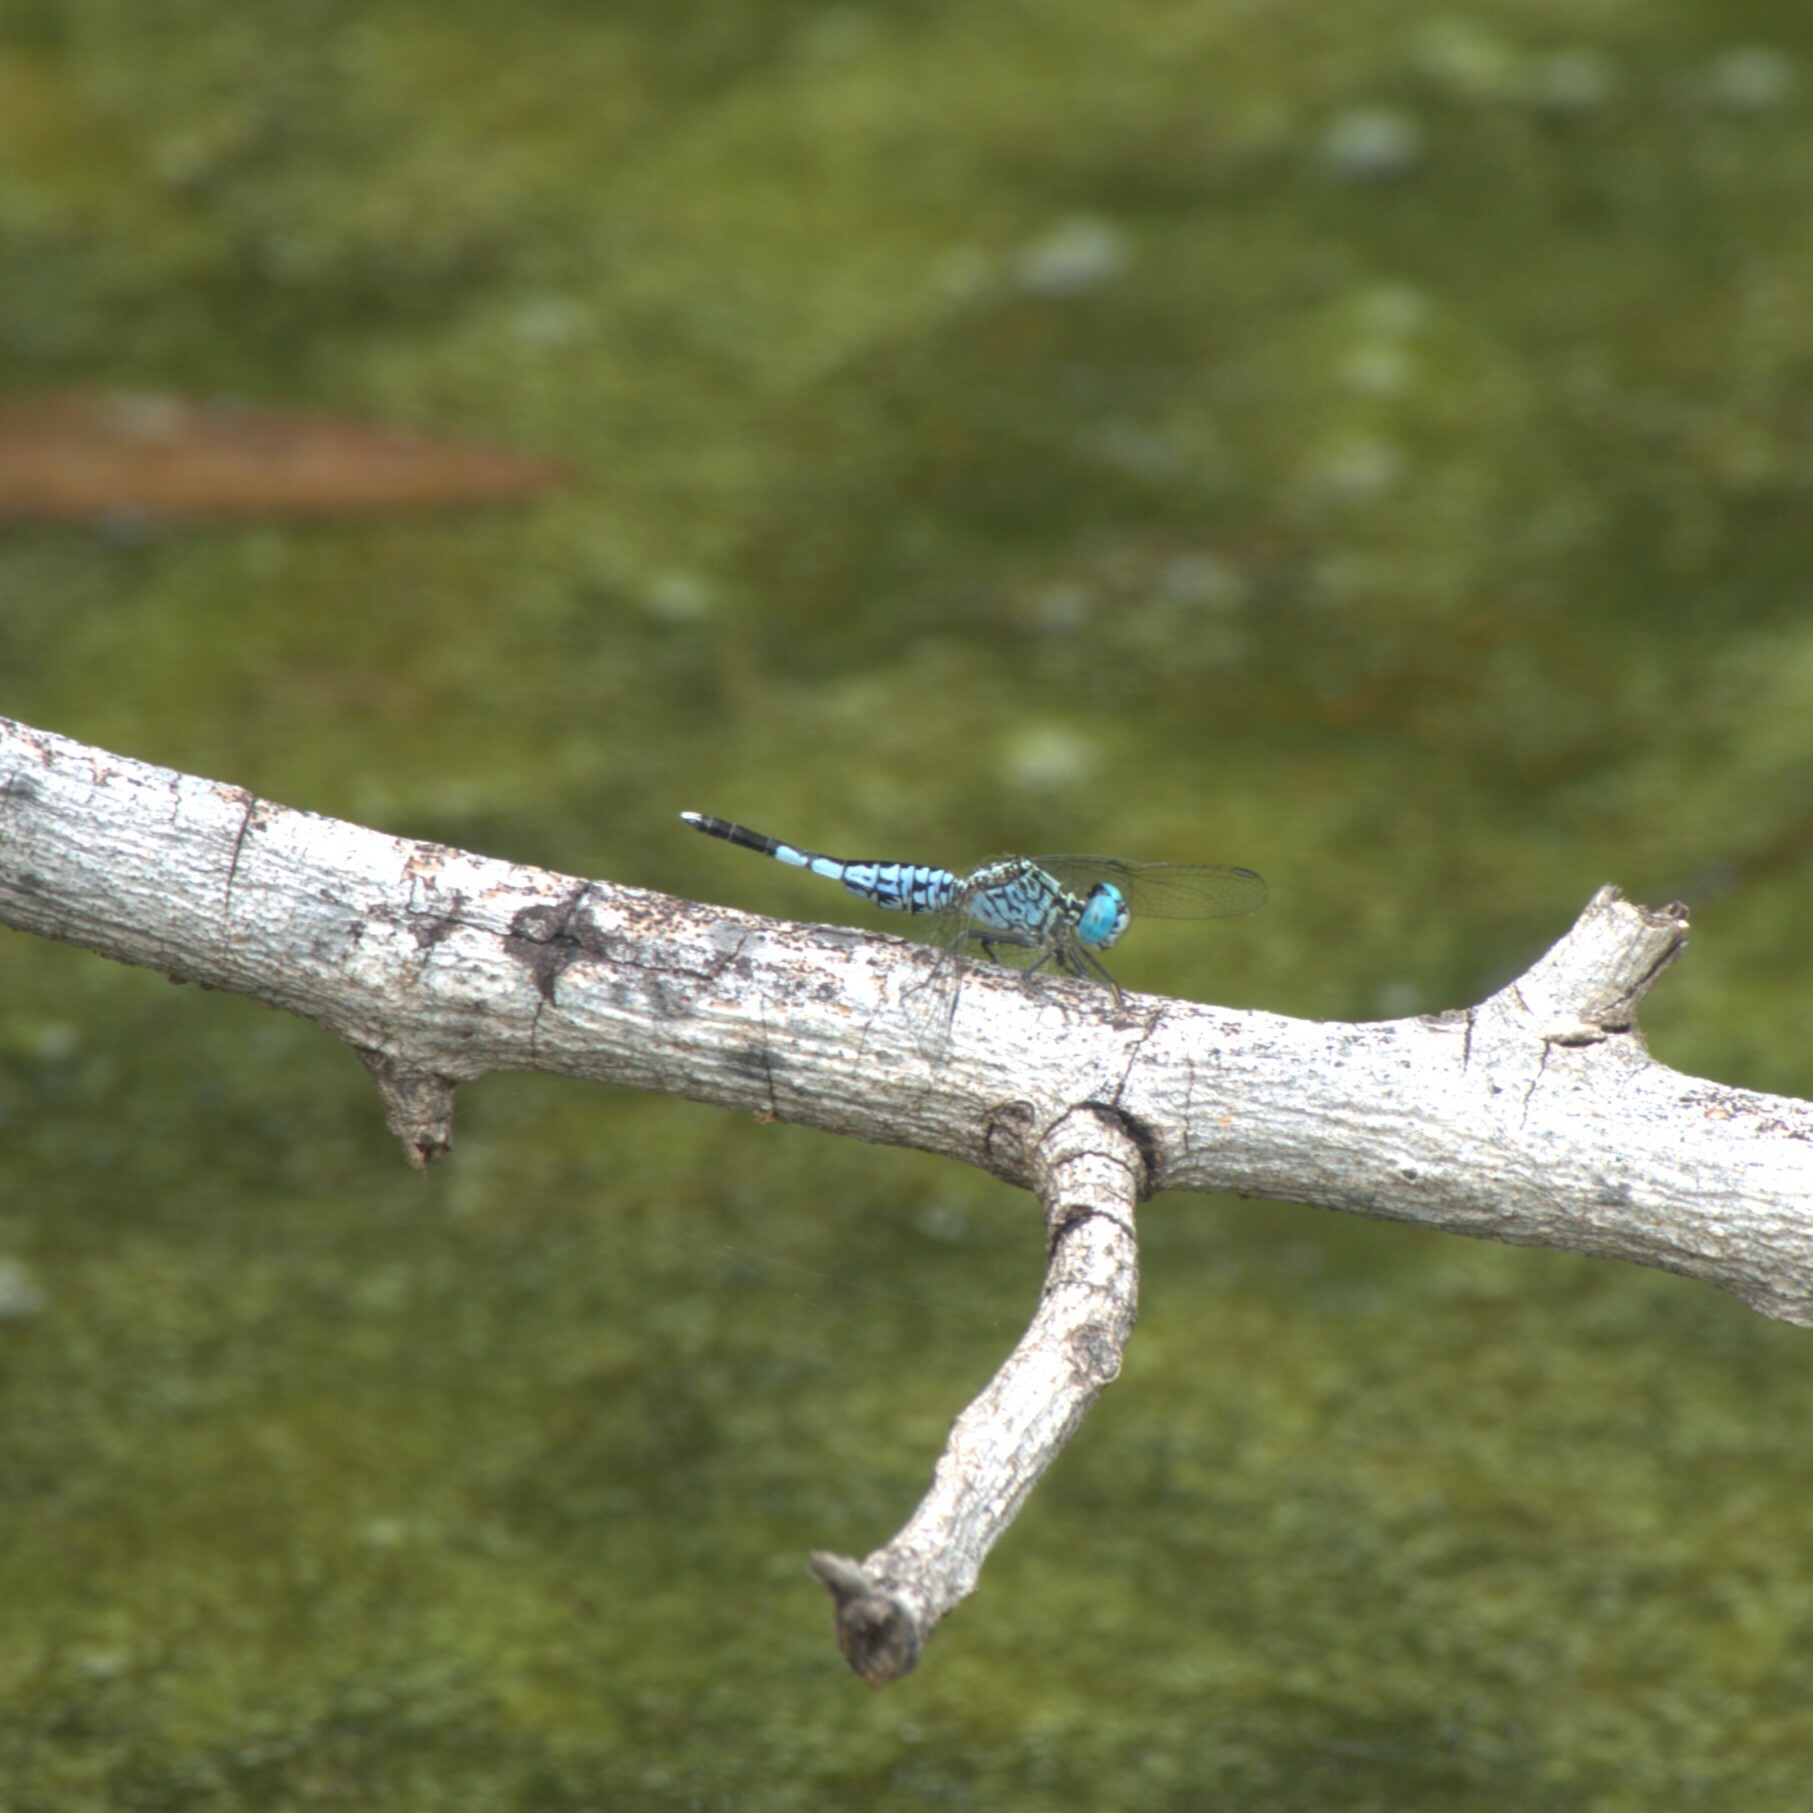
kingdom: Animalia
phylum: Arthropoda
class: Insecta
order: Odonata
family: Libellulidae
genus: Acisoma
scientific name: Acisoma panorpoides
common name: Asian pintail
